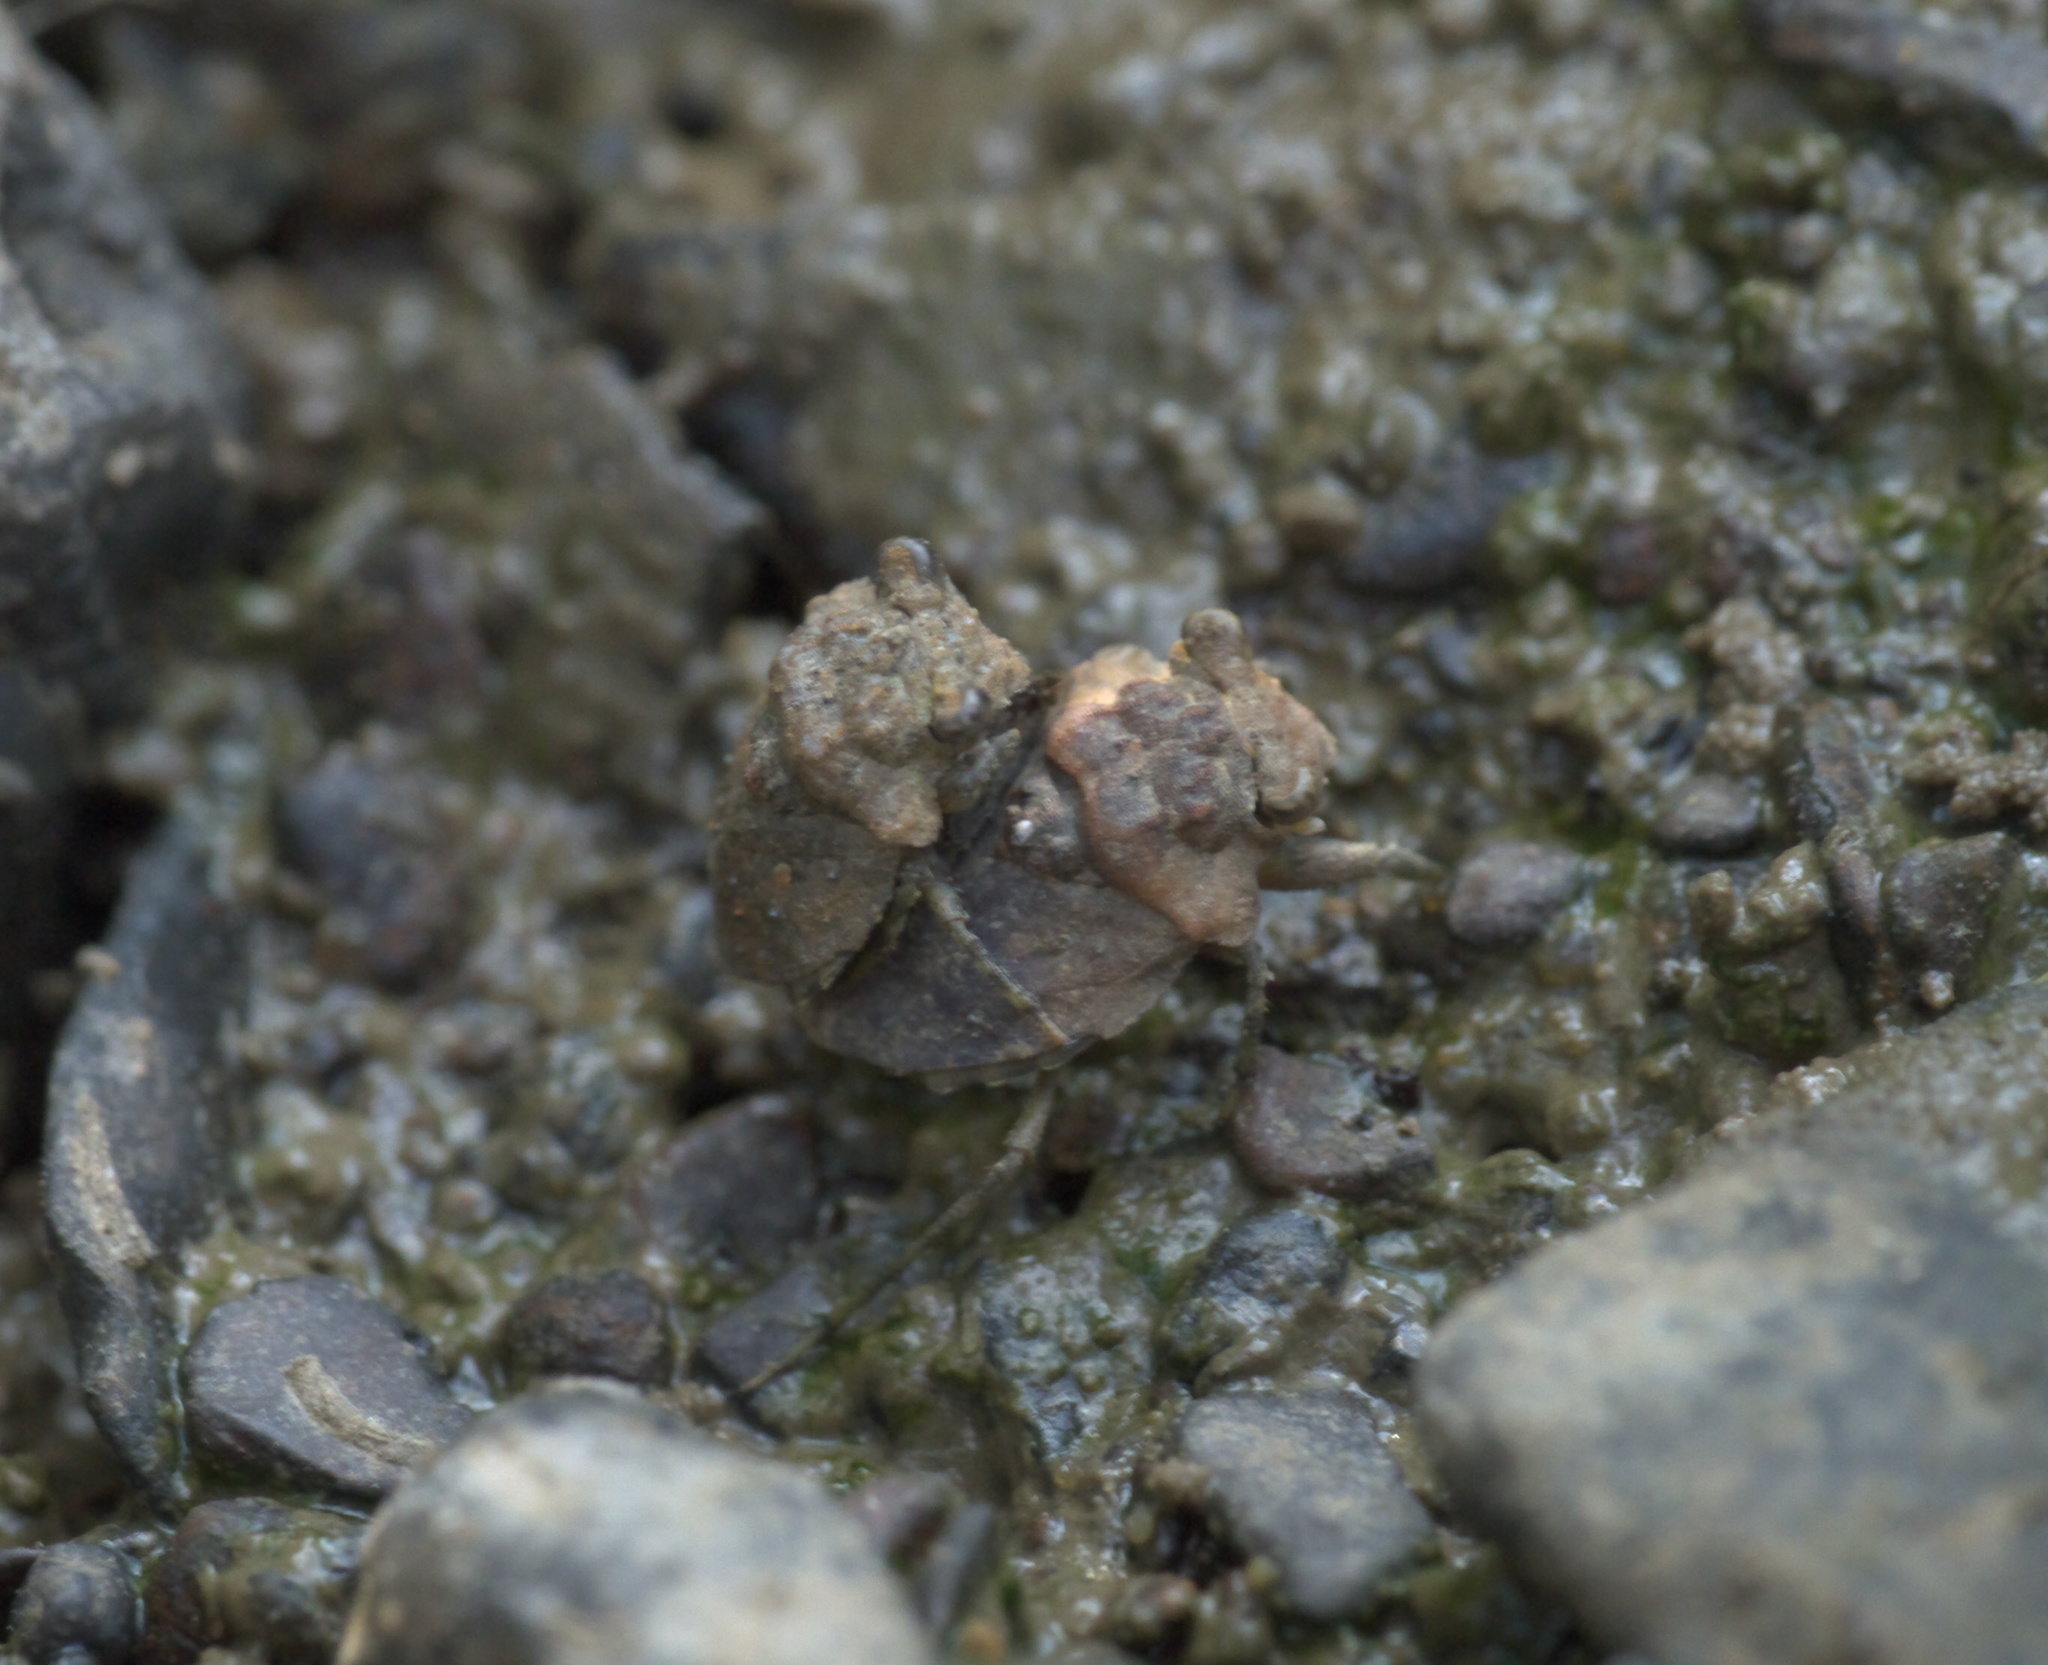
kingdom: Animalia
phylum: Arthropoda
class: Insecta
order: Hemiptera
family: Gelastocoridae
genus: Gelastocoris
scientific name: Gelastocoris oculatus
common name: Toad bug
